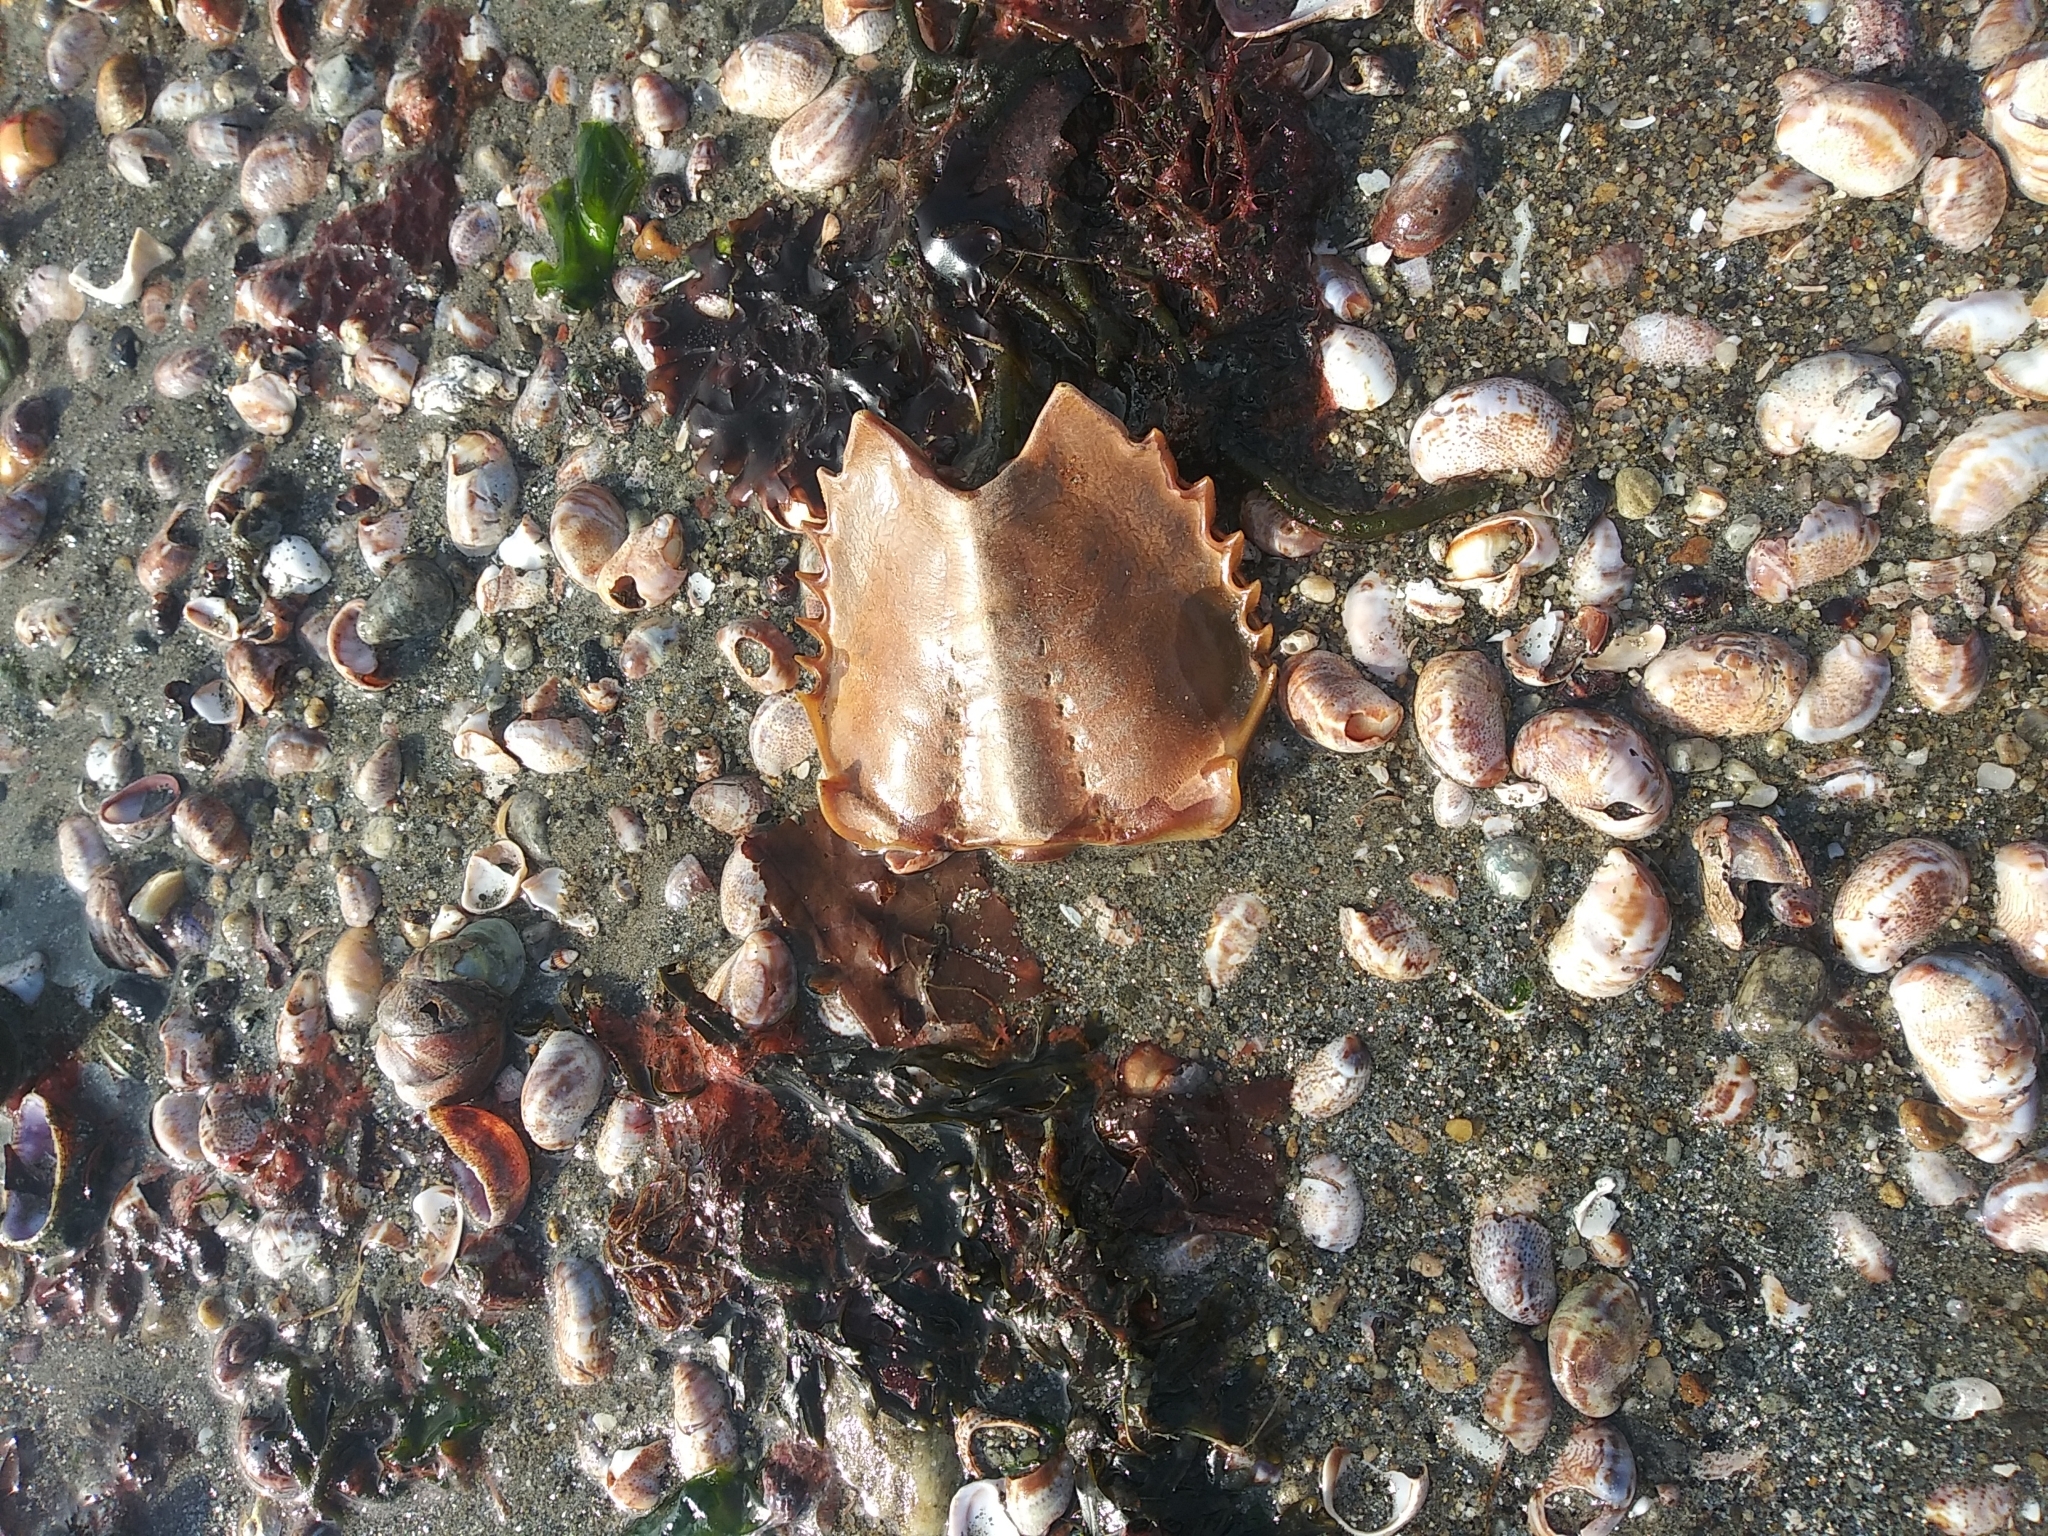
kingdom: Animalia
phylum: Arthropoda
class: Merostomata
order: Xiphosurida
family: Limulidae
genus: Limulus
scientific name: Limulus polyphemus
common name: Horseshoe crab
